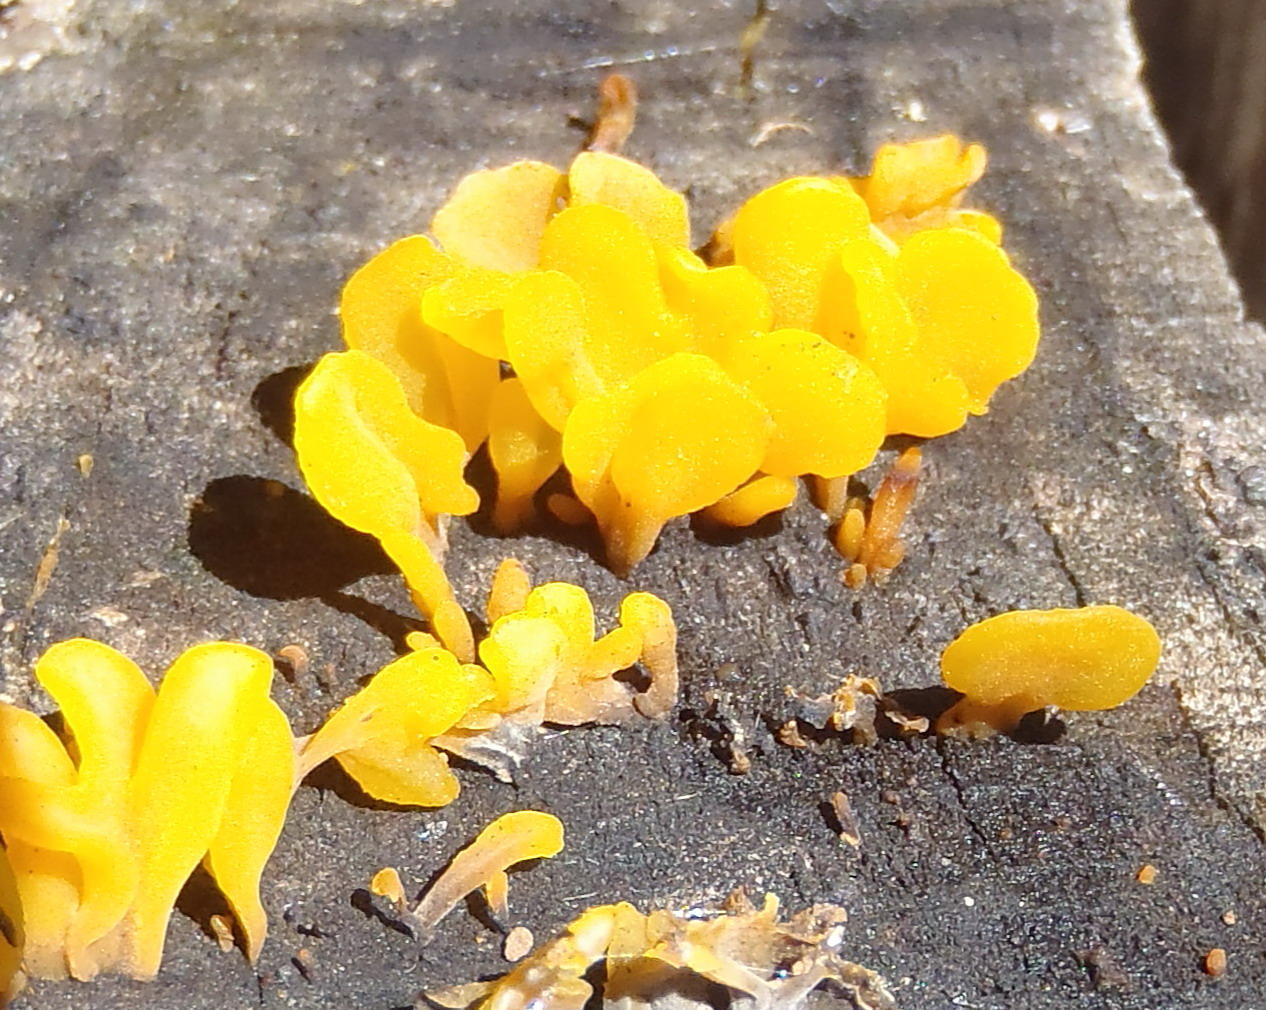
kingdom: Fungi
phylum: Basidiomycota
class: Dacrymycetes
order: Dacrymycetales
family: Dacrymycetaceae
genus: Dacrymyces
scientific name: Dacrymyces spathularius
